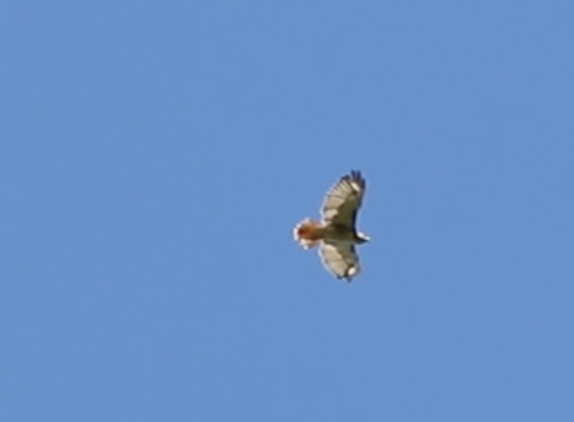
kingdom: Animalia
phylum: Chordata
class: Aves
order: Accipitriformes
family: Accipitridae
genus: Buteo
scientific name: Buteo jamaicensis
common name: Red-tailed hawk
